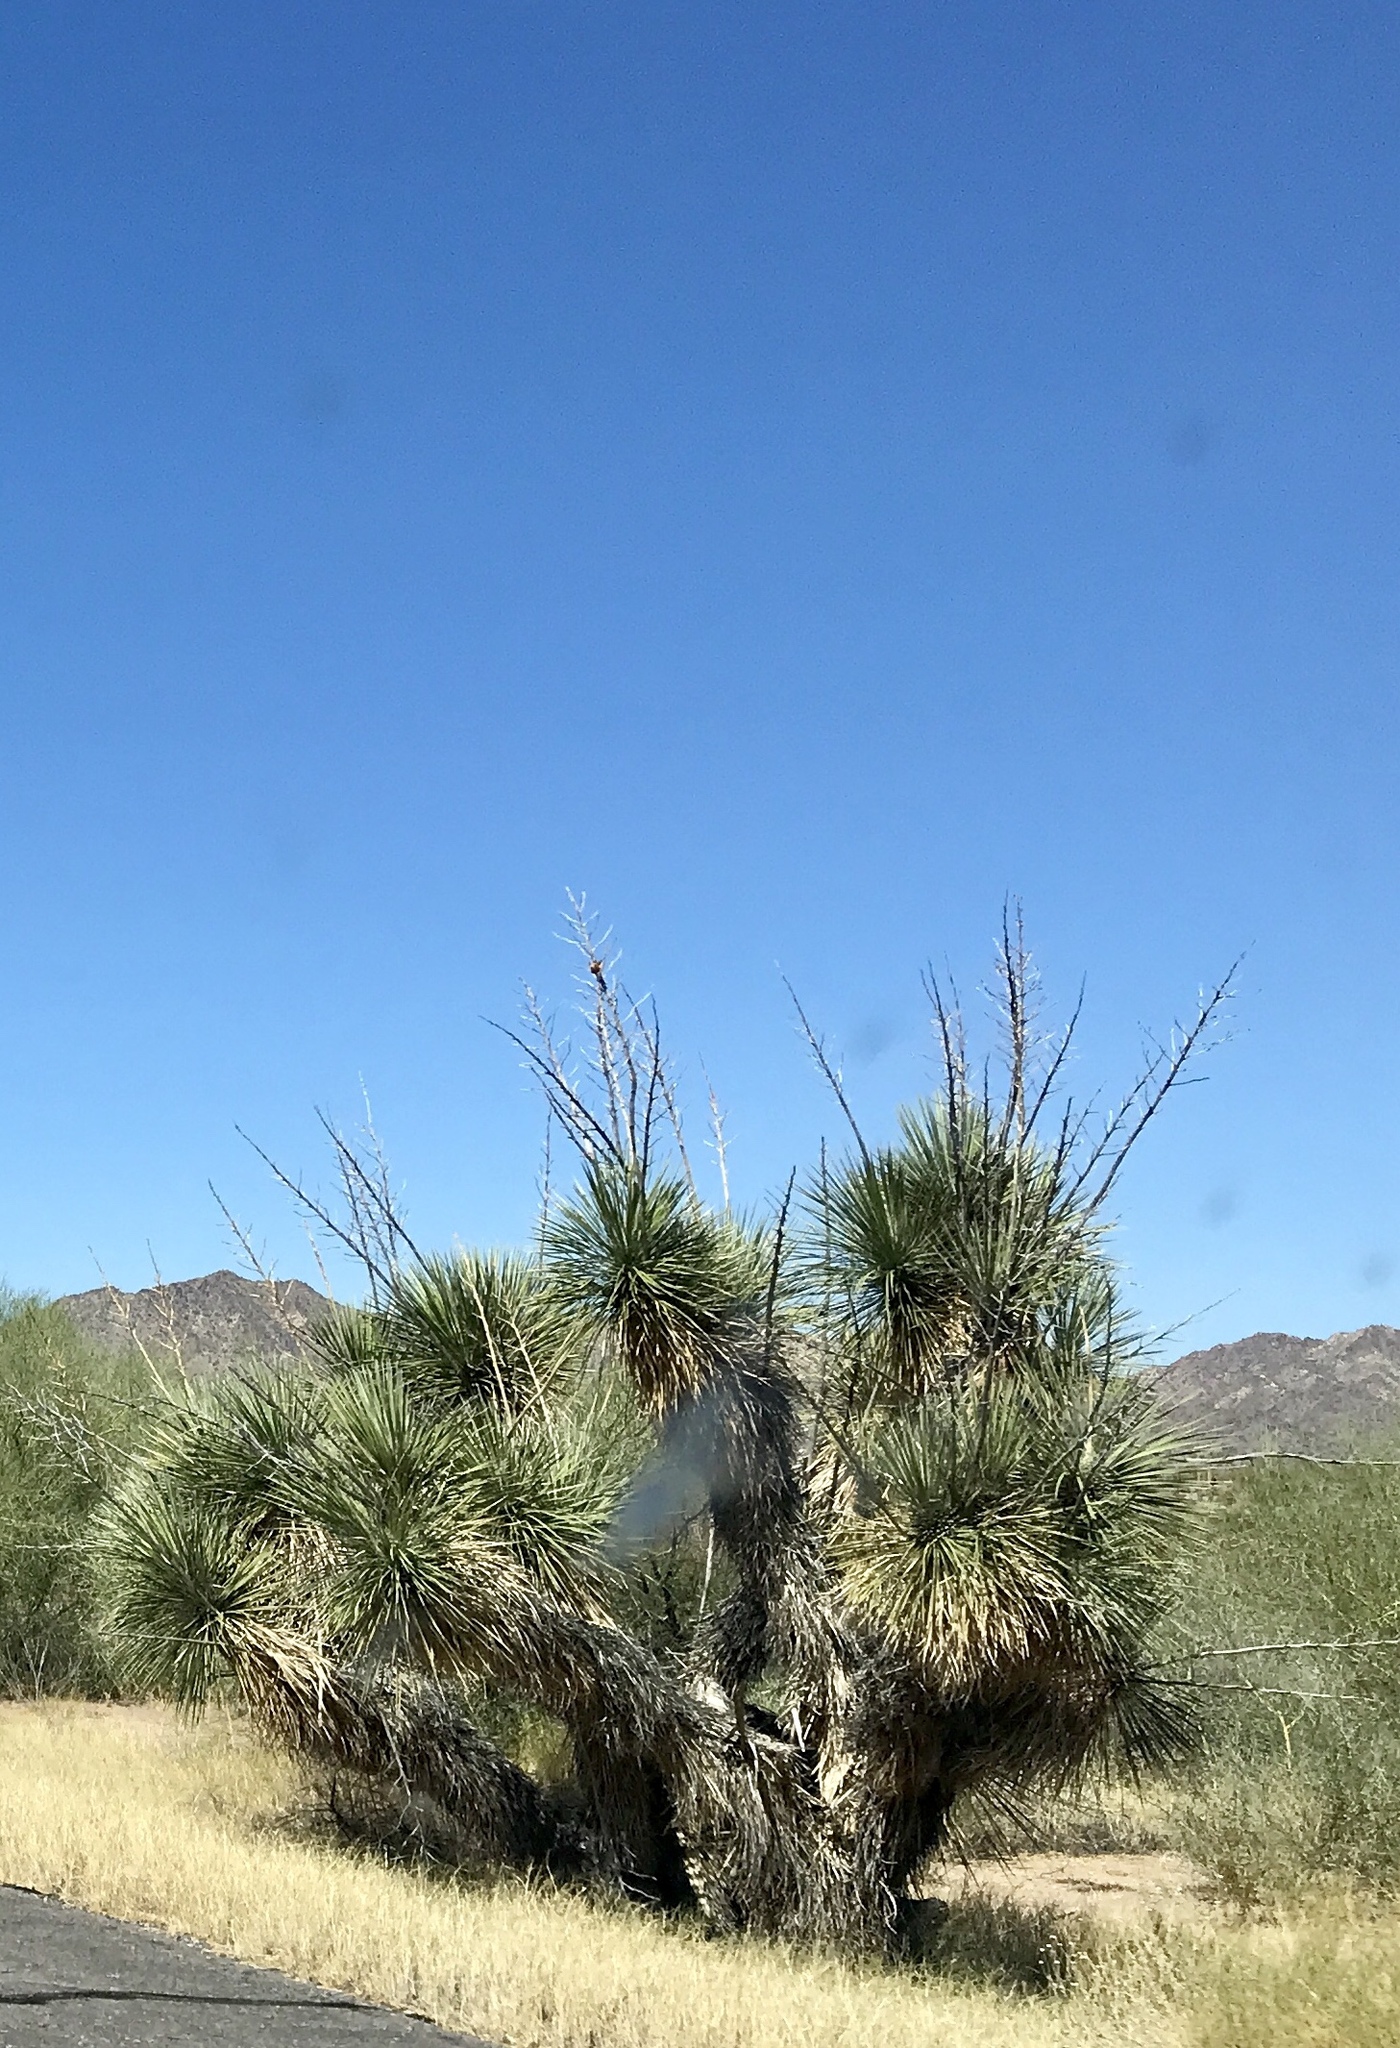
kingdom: Plantae
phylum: Tracheophyta
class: Liliopsida
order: Asparagales
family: Asparagaceae
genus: Yucca
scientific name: Yucca elata
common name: Palmella
